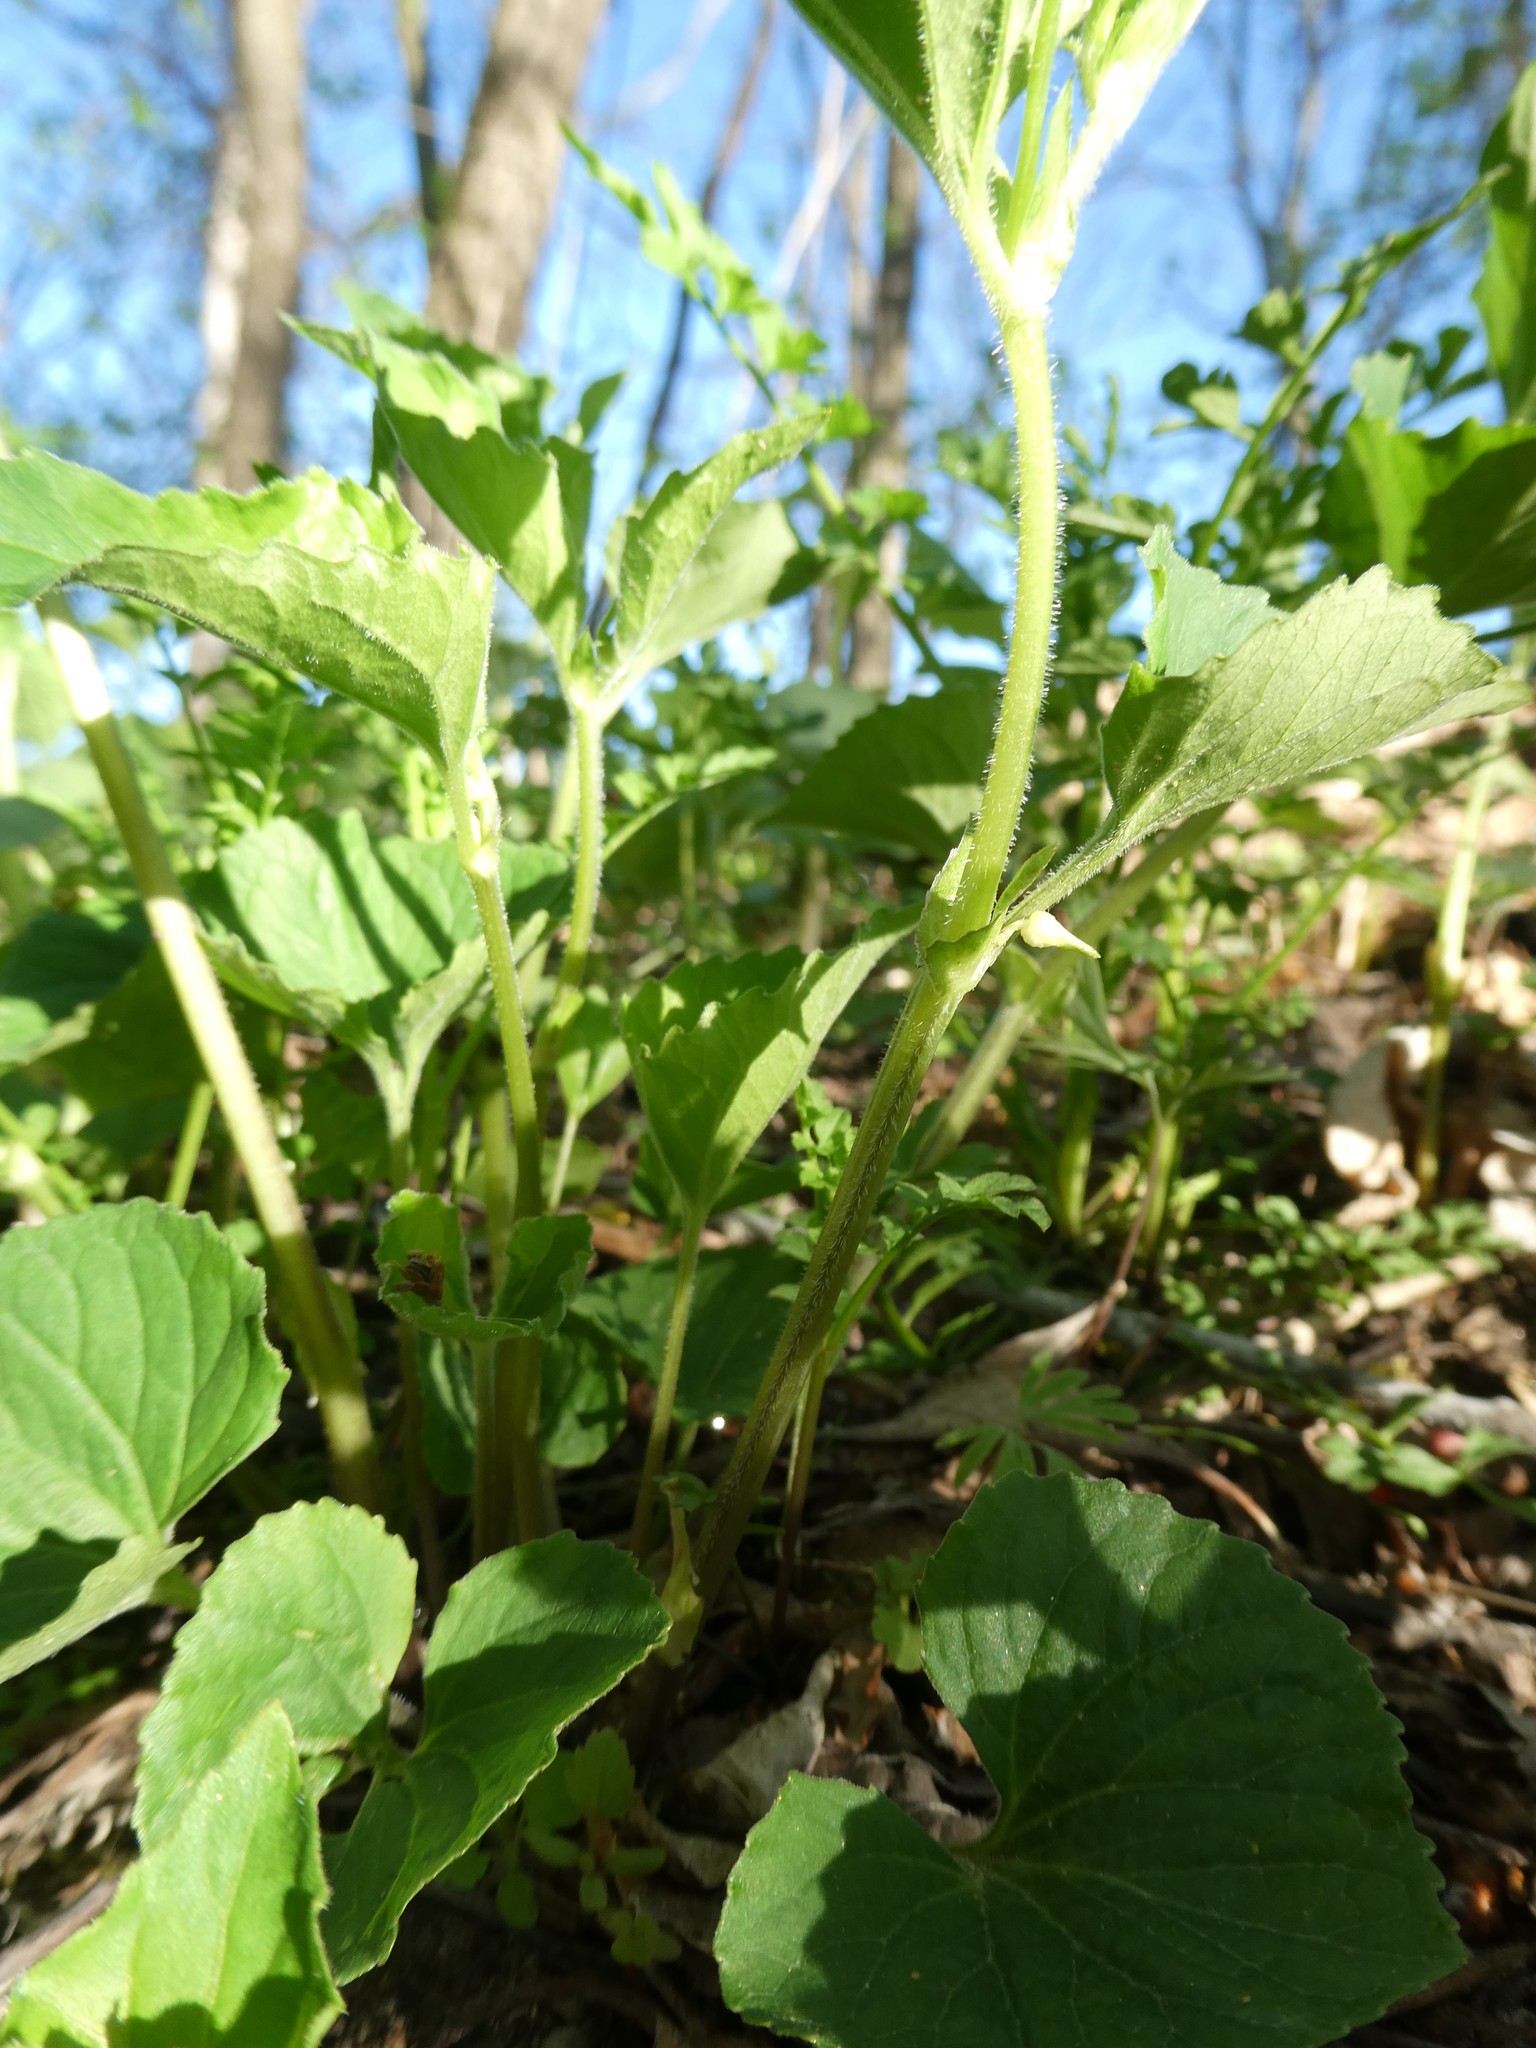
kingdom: Plantae
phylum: Tracheophyta
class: Magnoliopsida
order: Malpighiales
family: Violaceae
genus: Viola
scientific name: Viola eriocarpa
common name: Smooth yellow violet
